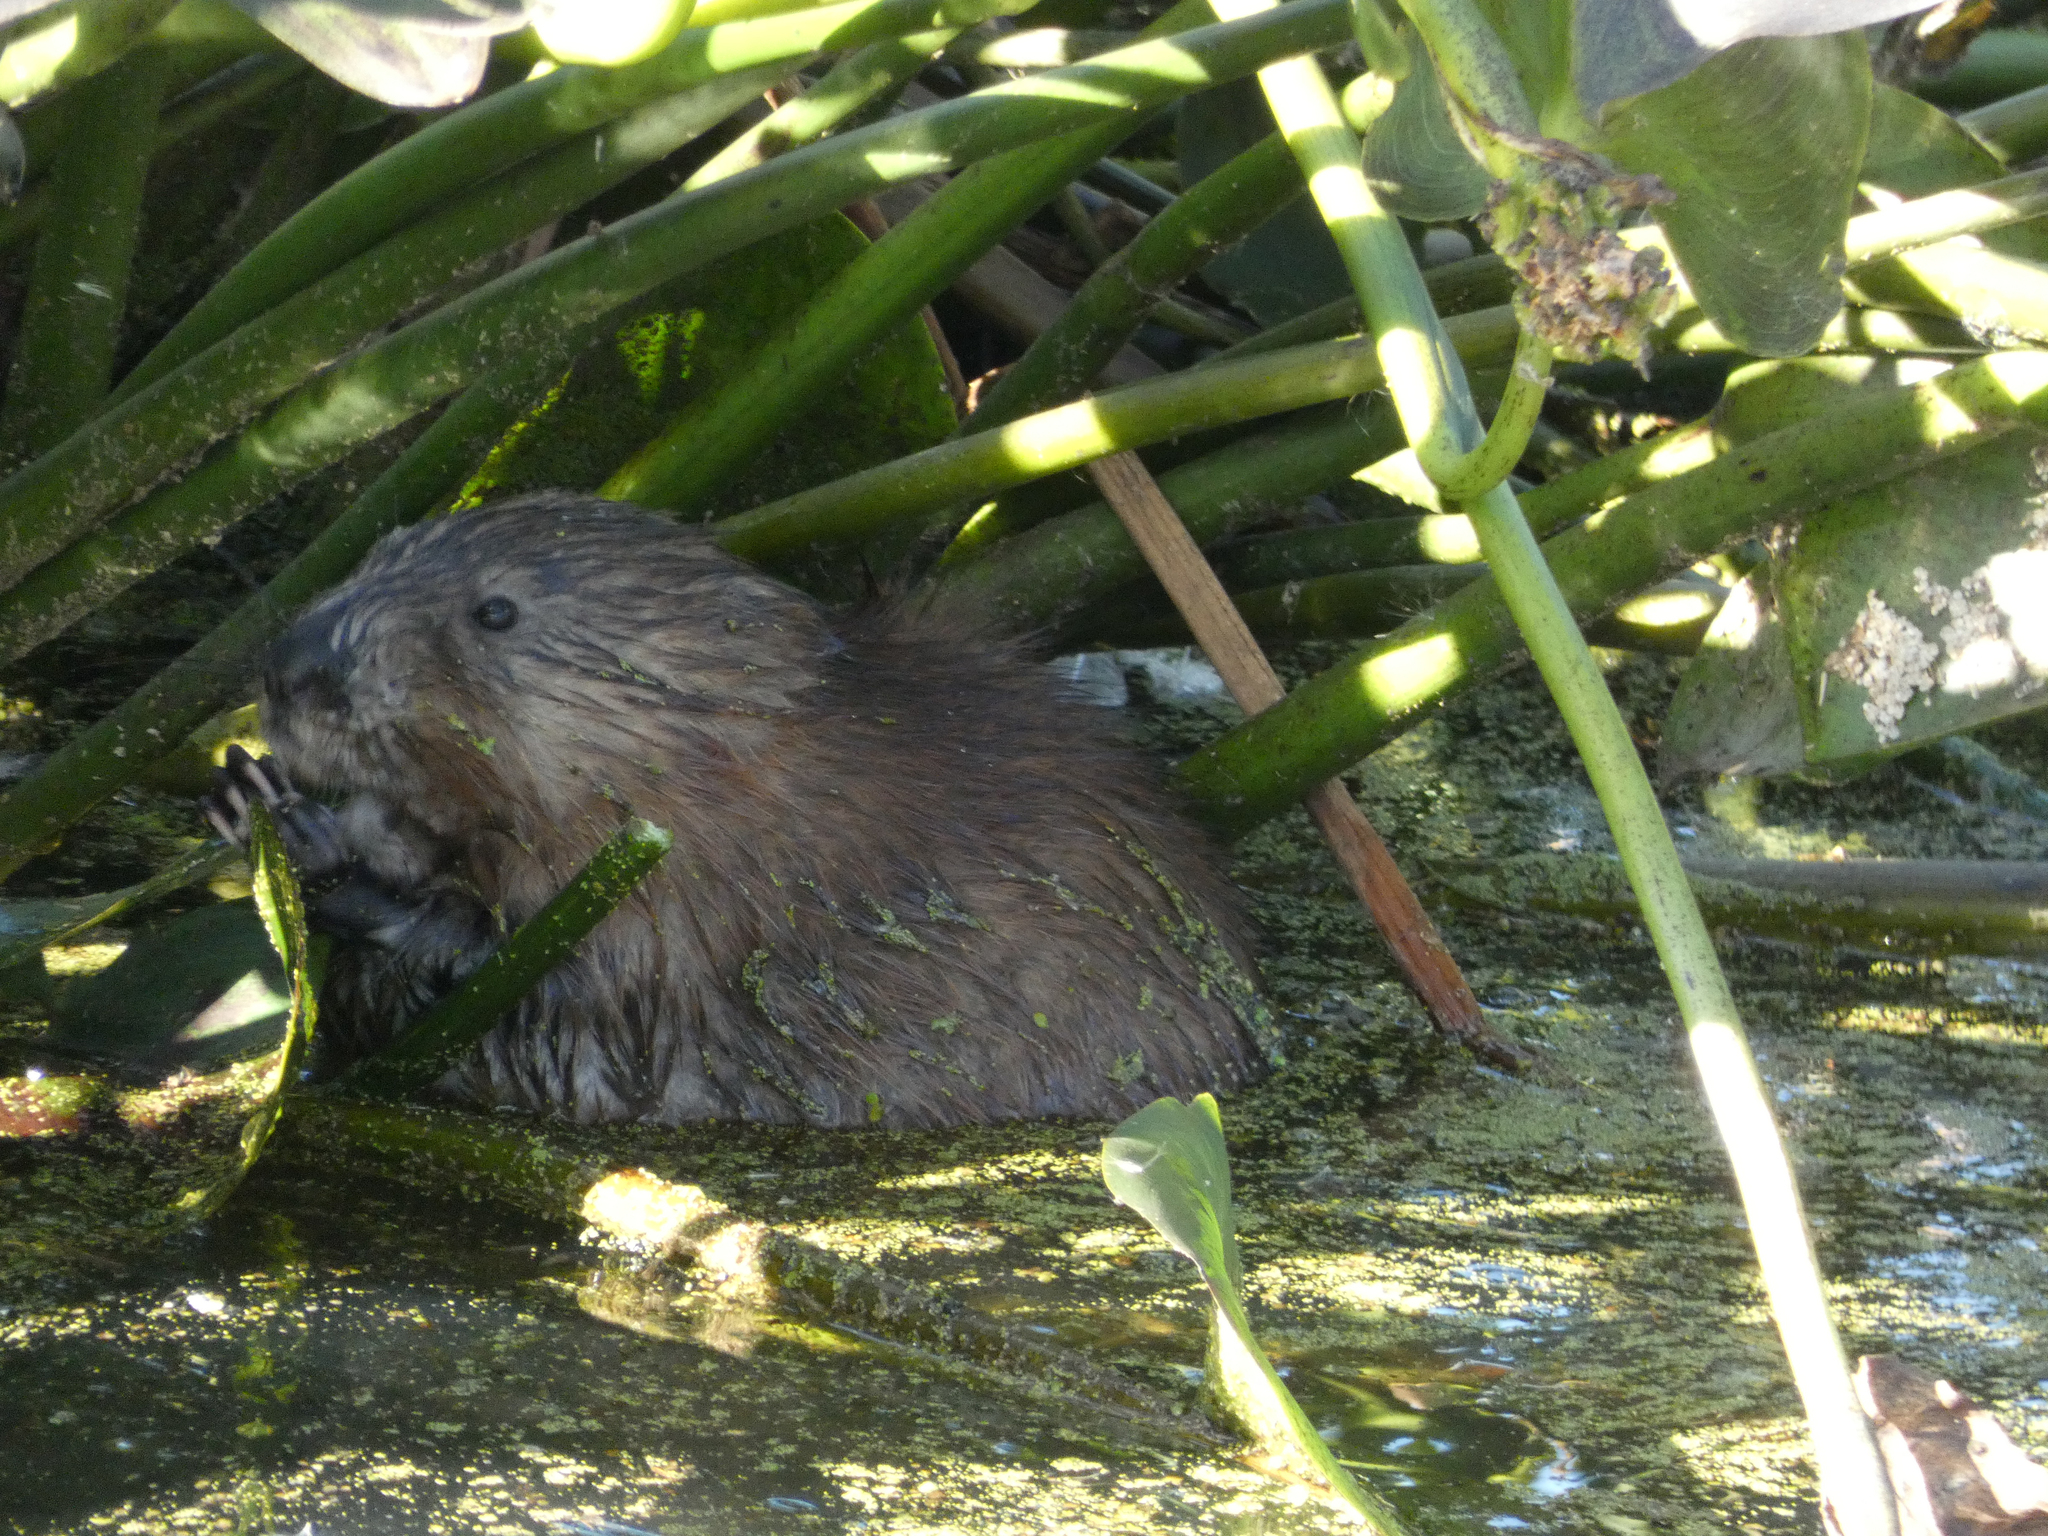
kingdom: Animalia
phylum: Chordata
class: Mammalia
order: Rodentia
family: Cricetidae
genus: Ondatra
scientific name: Ondatra zibethicus
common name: Muskrat
